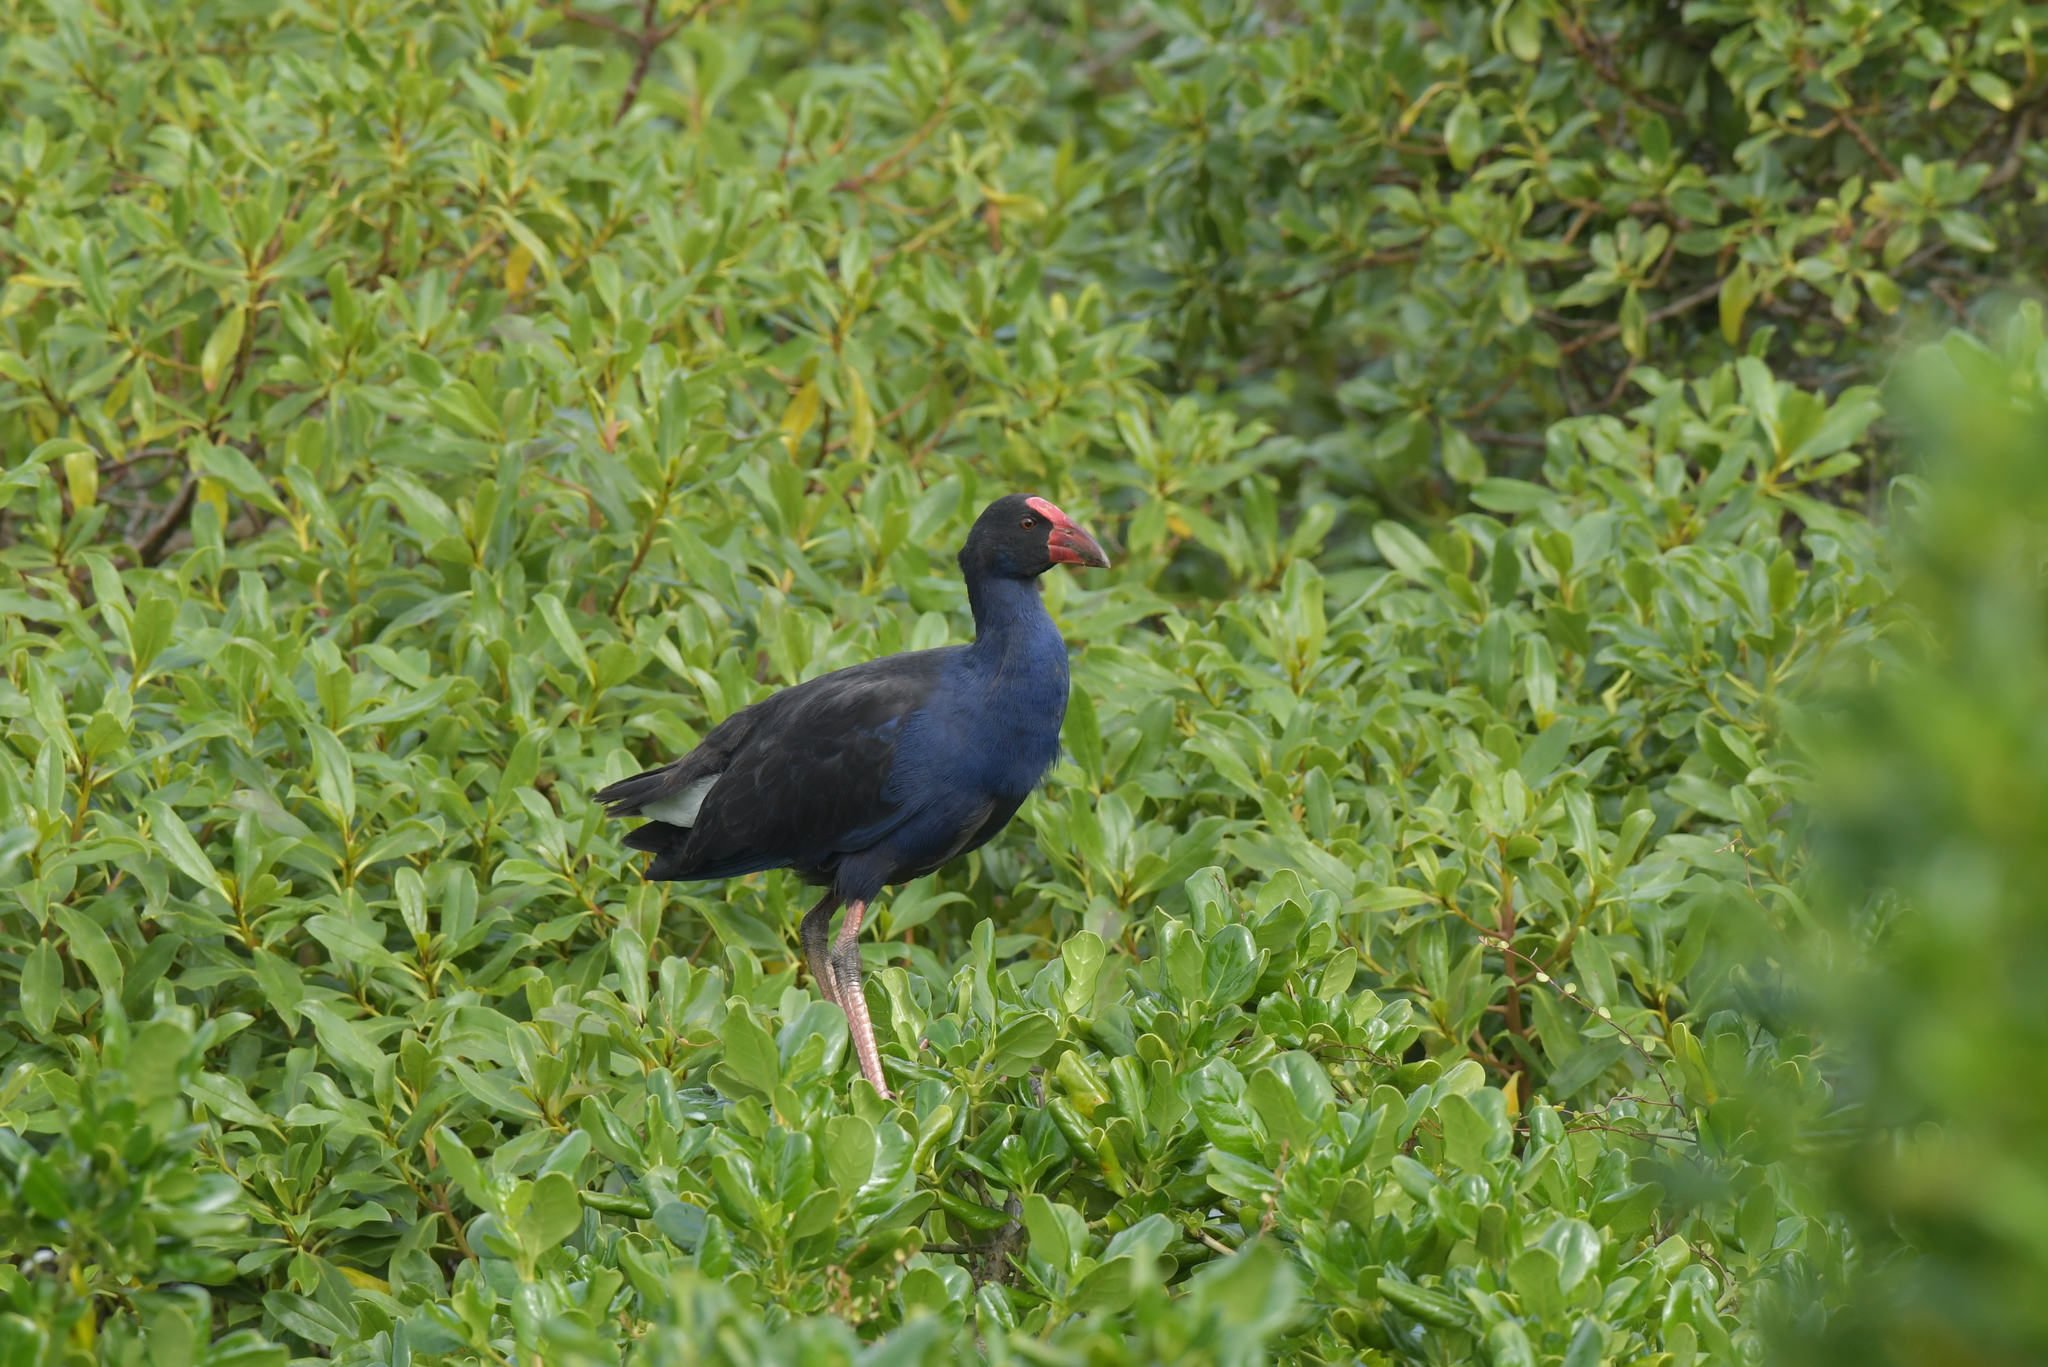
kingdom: Animalia
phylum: Chordata
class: Aves
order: Gruiformes
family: Rallidae
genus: Porphyrio
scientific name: Porphyrio melanotus
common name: Australasian swamphen
